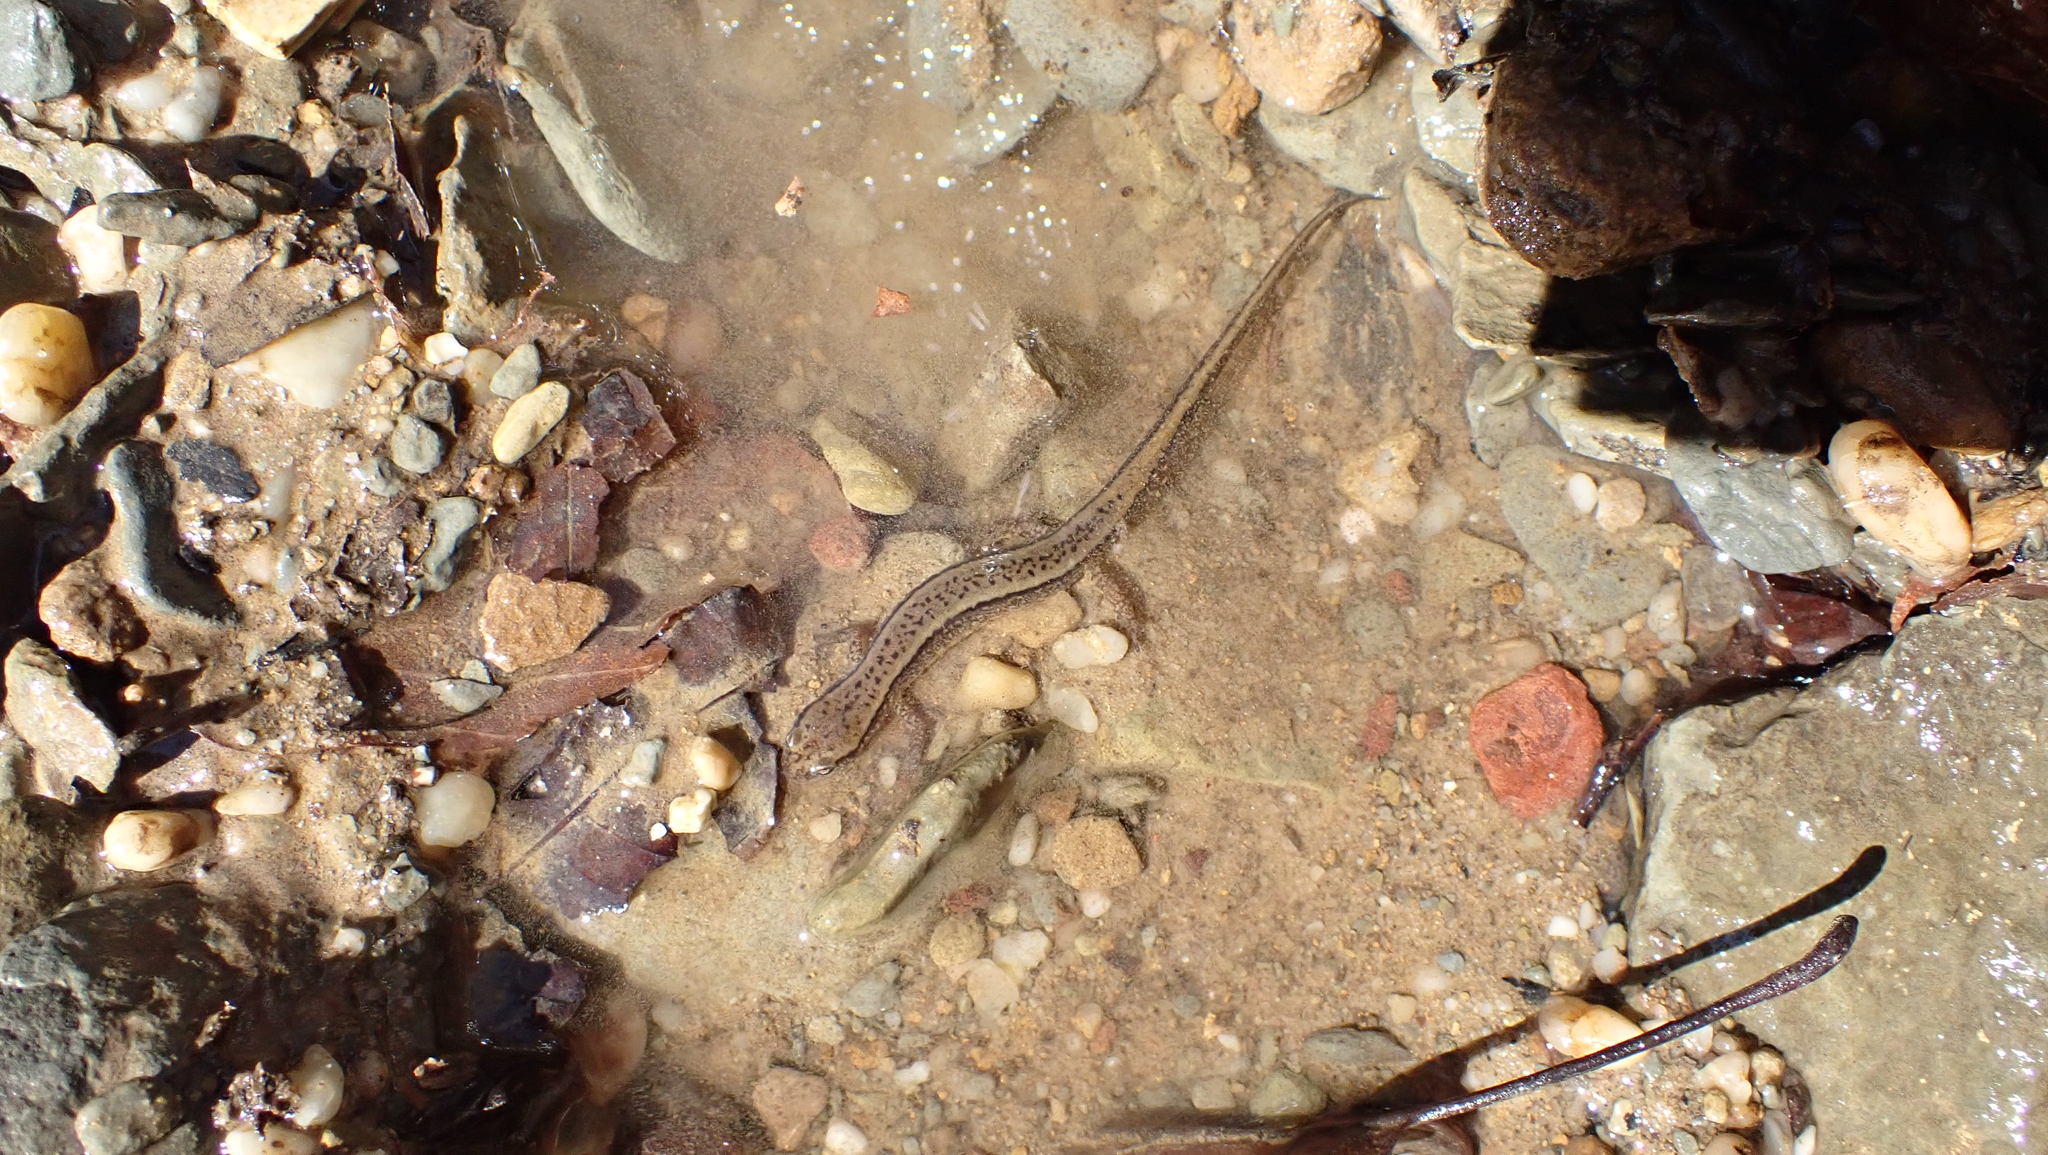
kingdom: Animalia
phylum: Chordata
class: Amphibia
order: Caudata
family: Plethodontidae
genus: Eurycea
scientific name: Eurycea cirrigera
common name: Southern two-lined salamander
